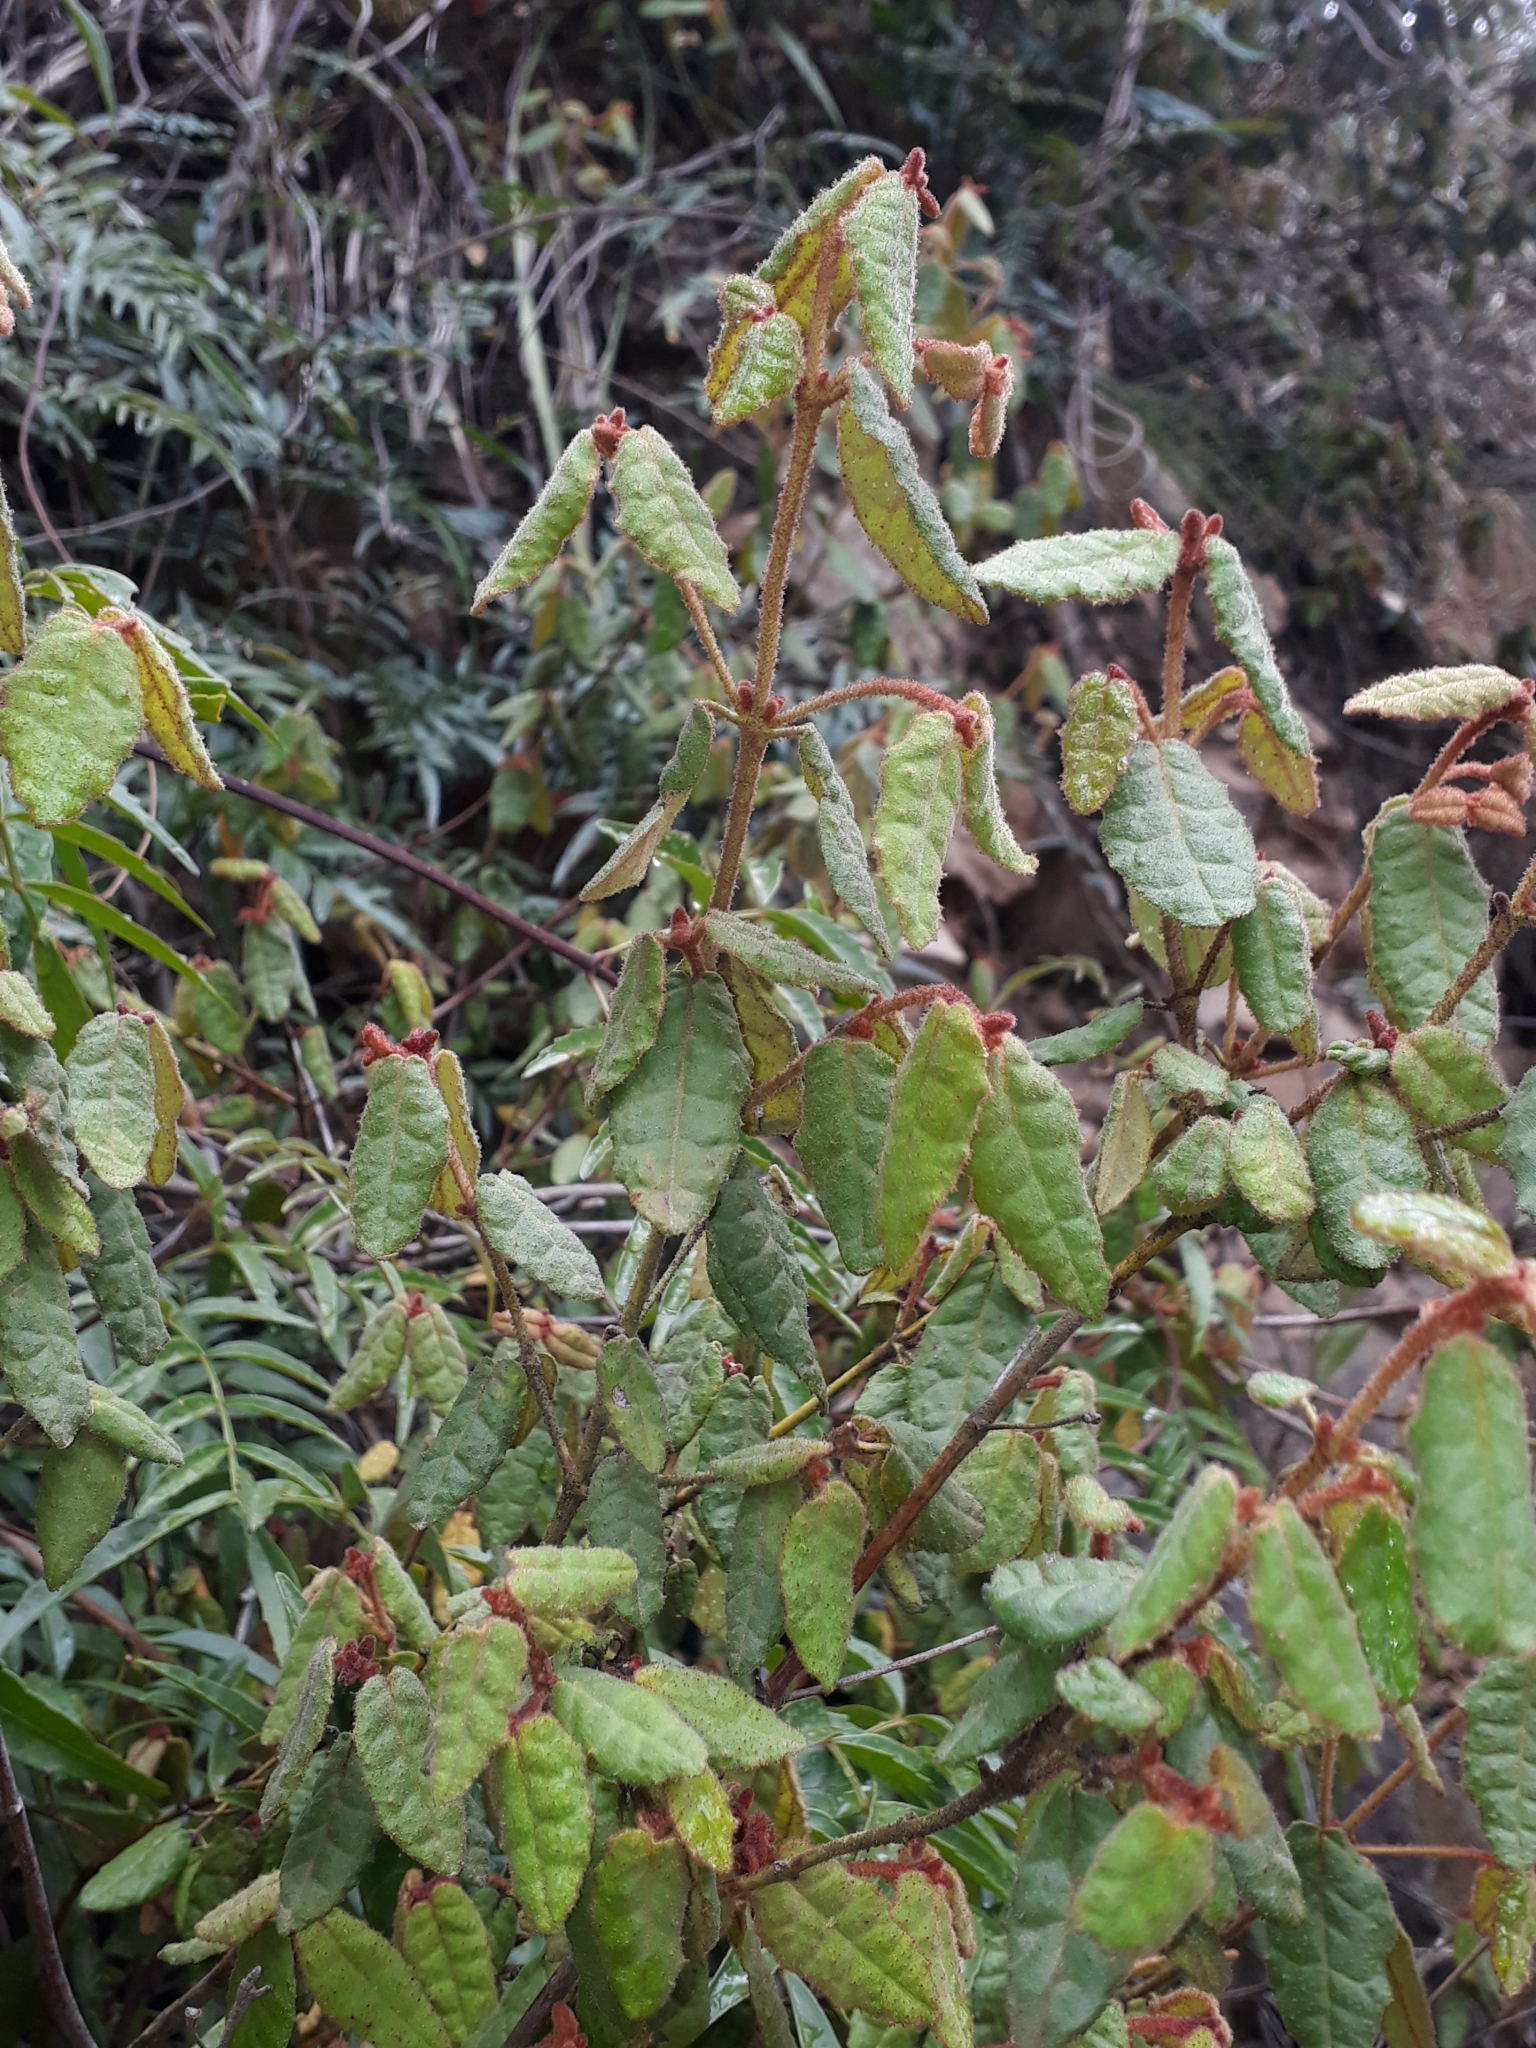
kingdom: Plantae
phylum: Tracheophyta
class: Magnoliopsida
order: Sapindales
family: Rutaceae
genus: Correa
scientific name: Correa reflexa
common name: Common correa
